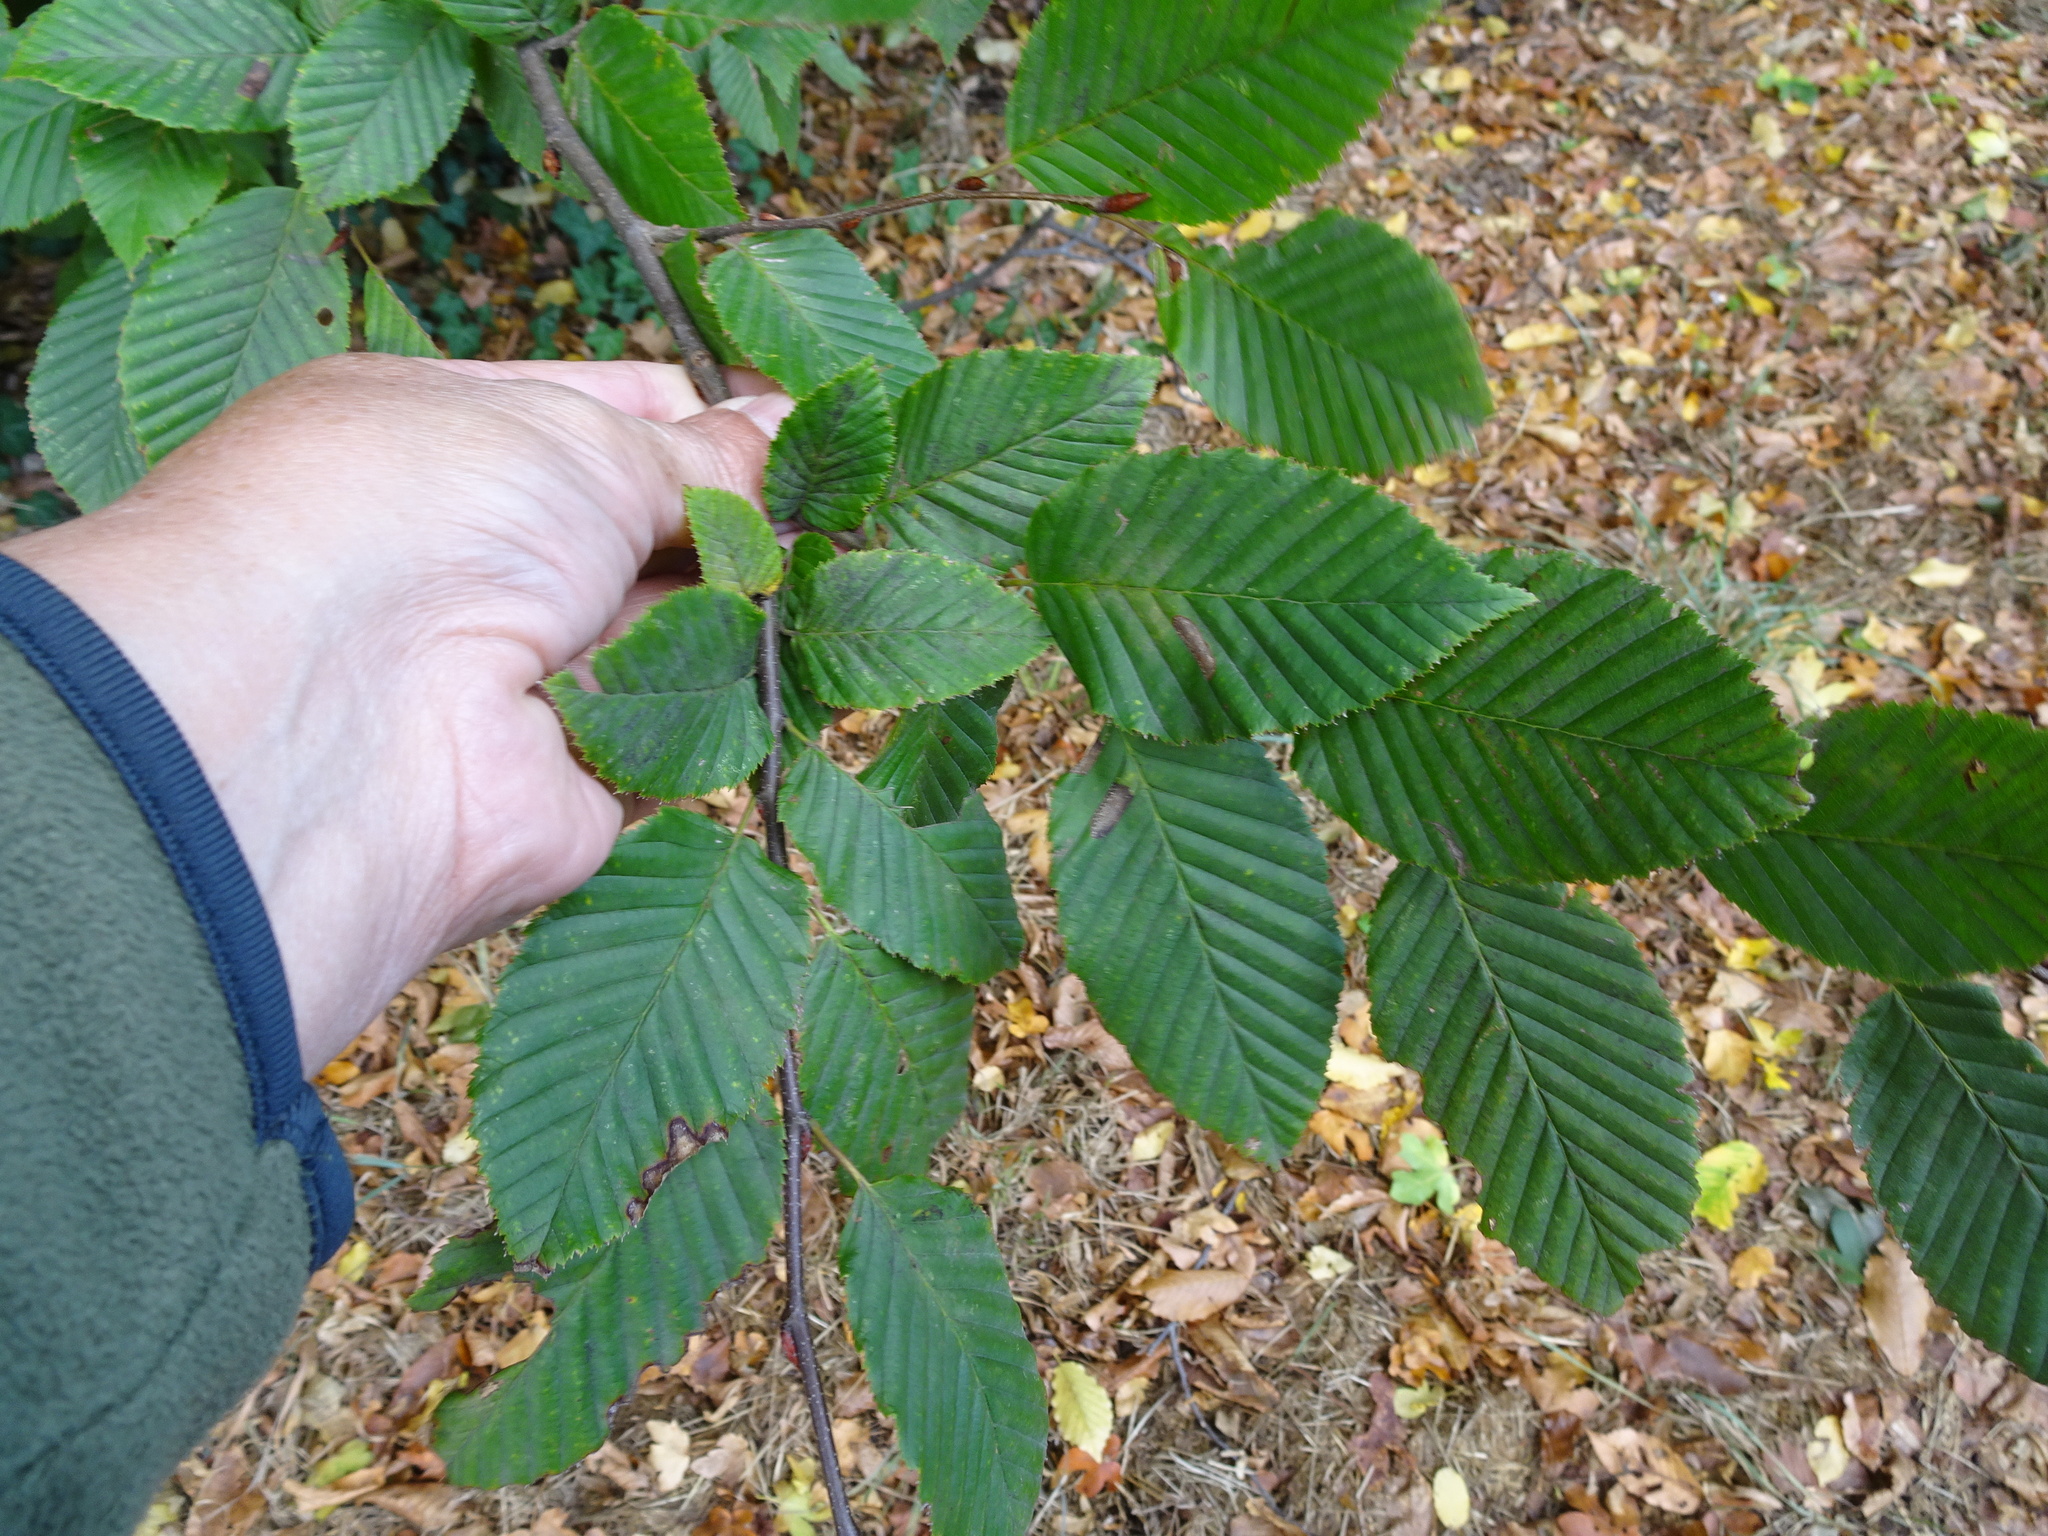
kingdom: Plantae
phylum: Tracheophyta
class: Magnoliopsida
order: Fagales
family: Betulaceae
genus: Carpinus
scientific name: Carpinus betulus
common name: Hornbeam
